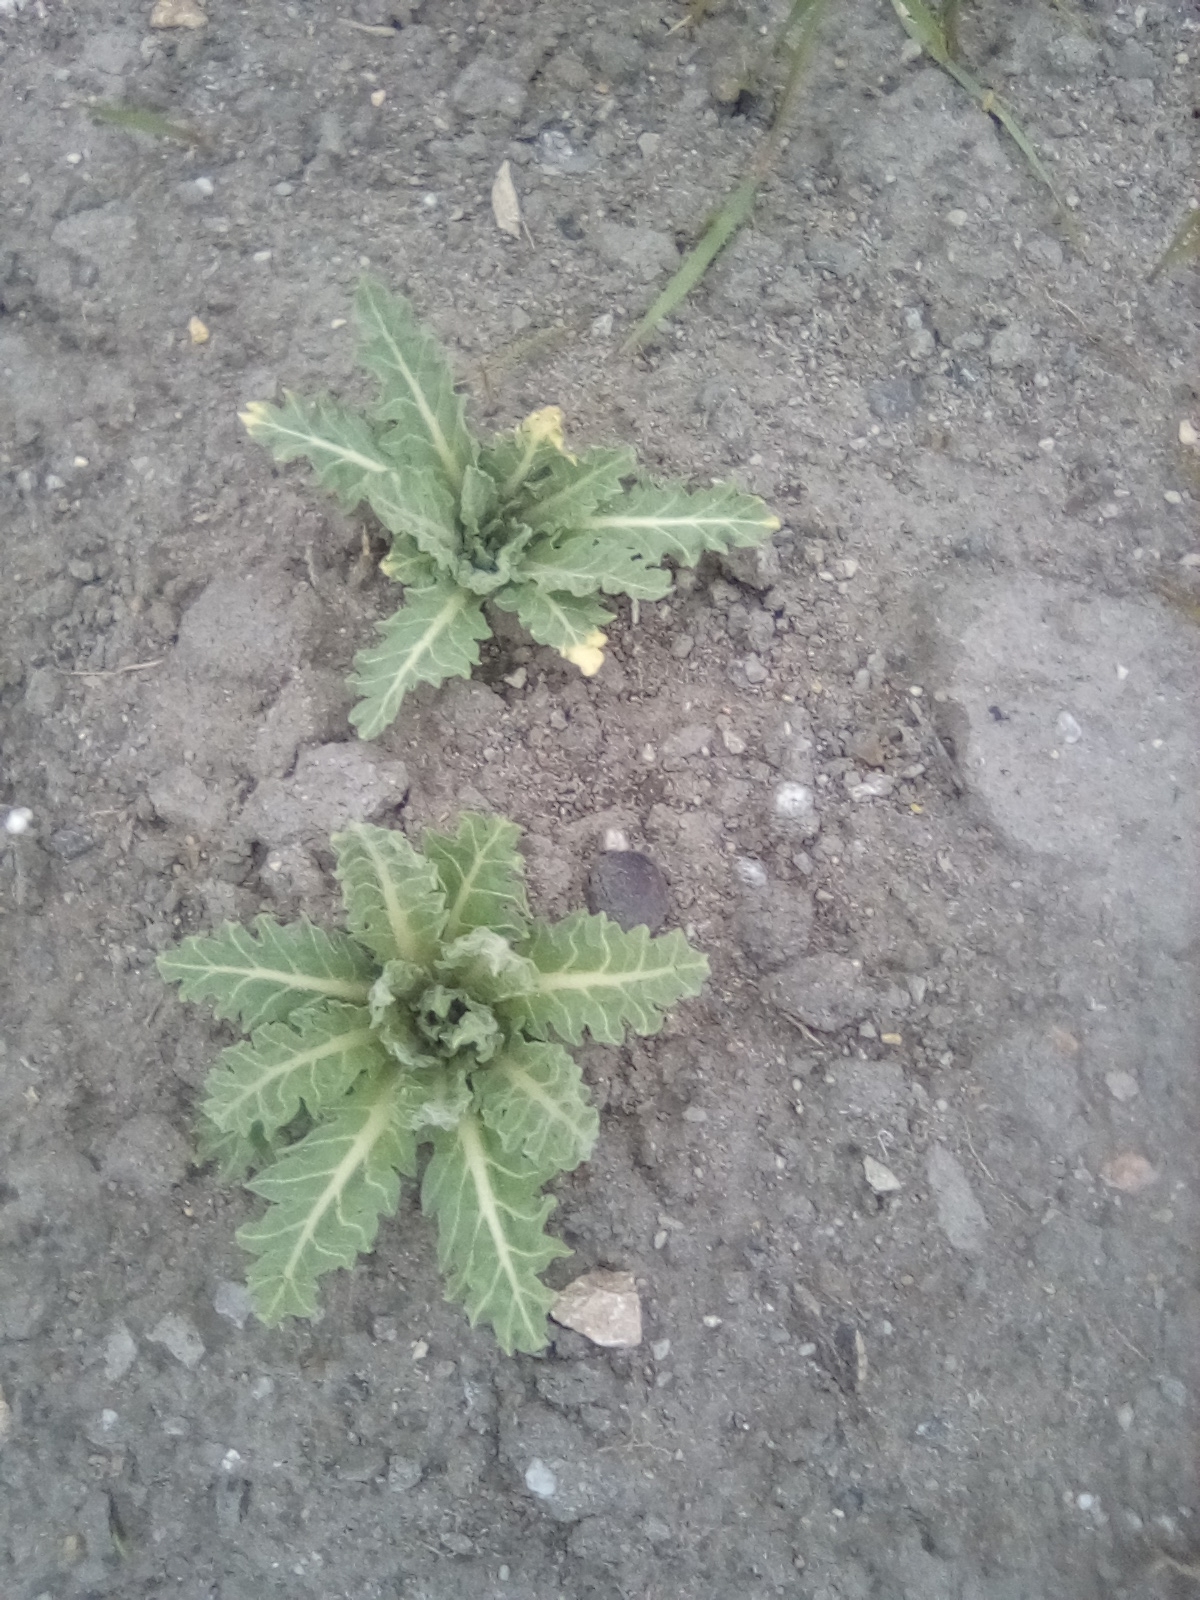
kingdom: Plantae
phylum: Tracheophyta
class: Magnoliopsida
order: Solanales
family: Solanaceae
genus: Hyoscyamus
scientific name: Hyoscyamus niger
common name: Henbane
